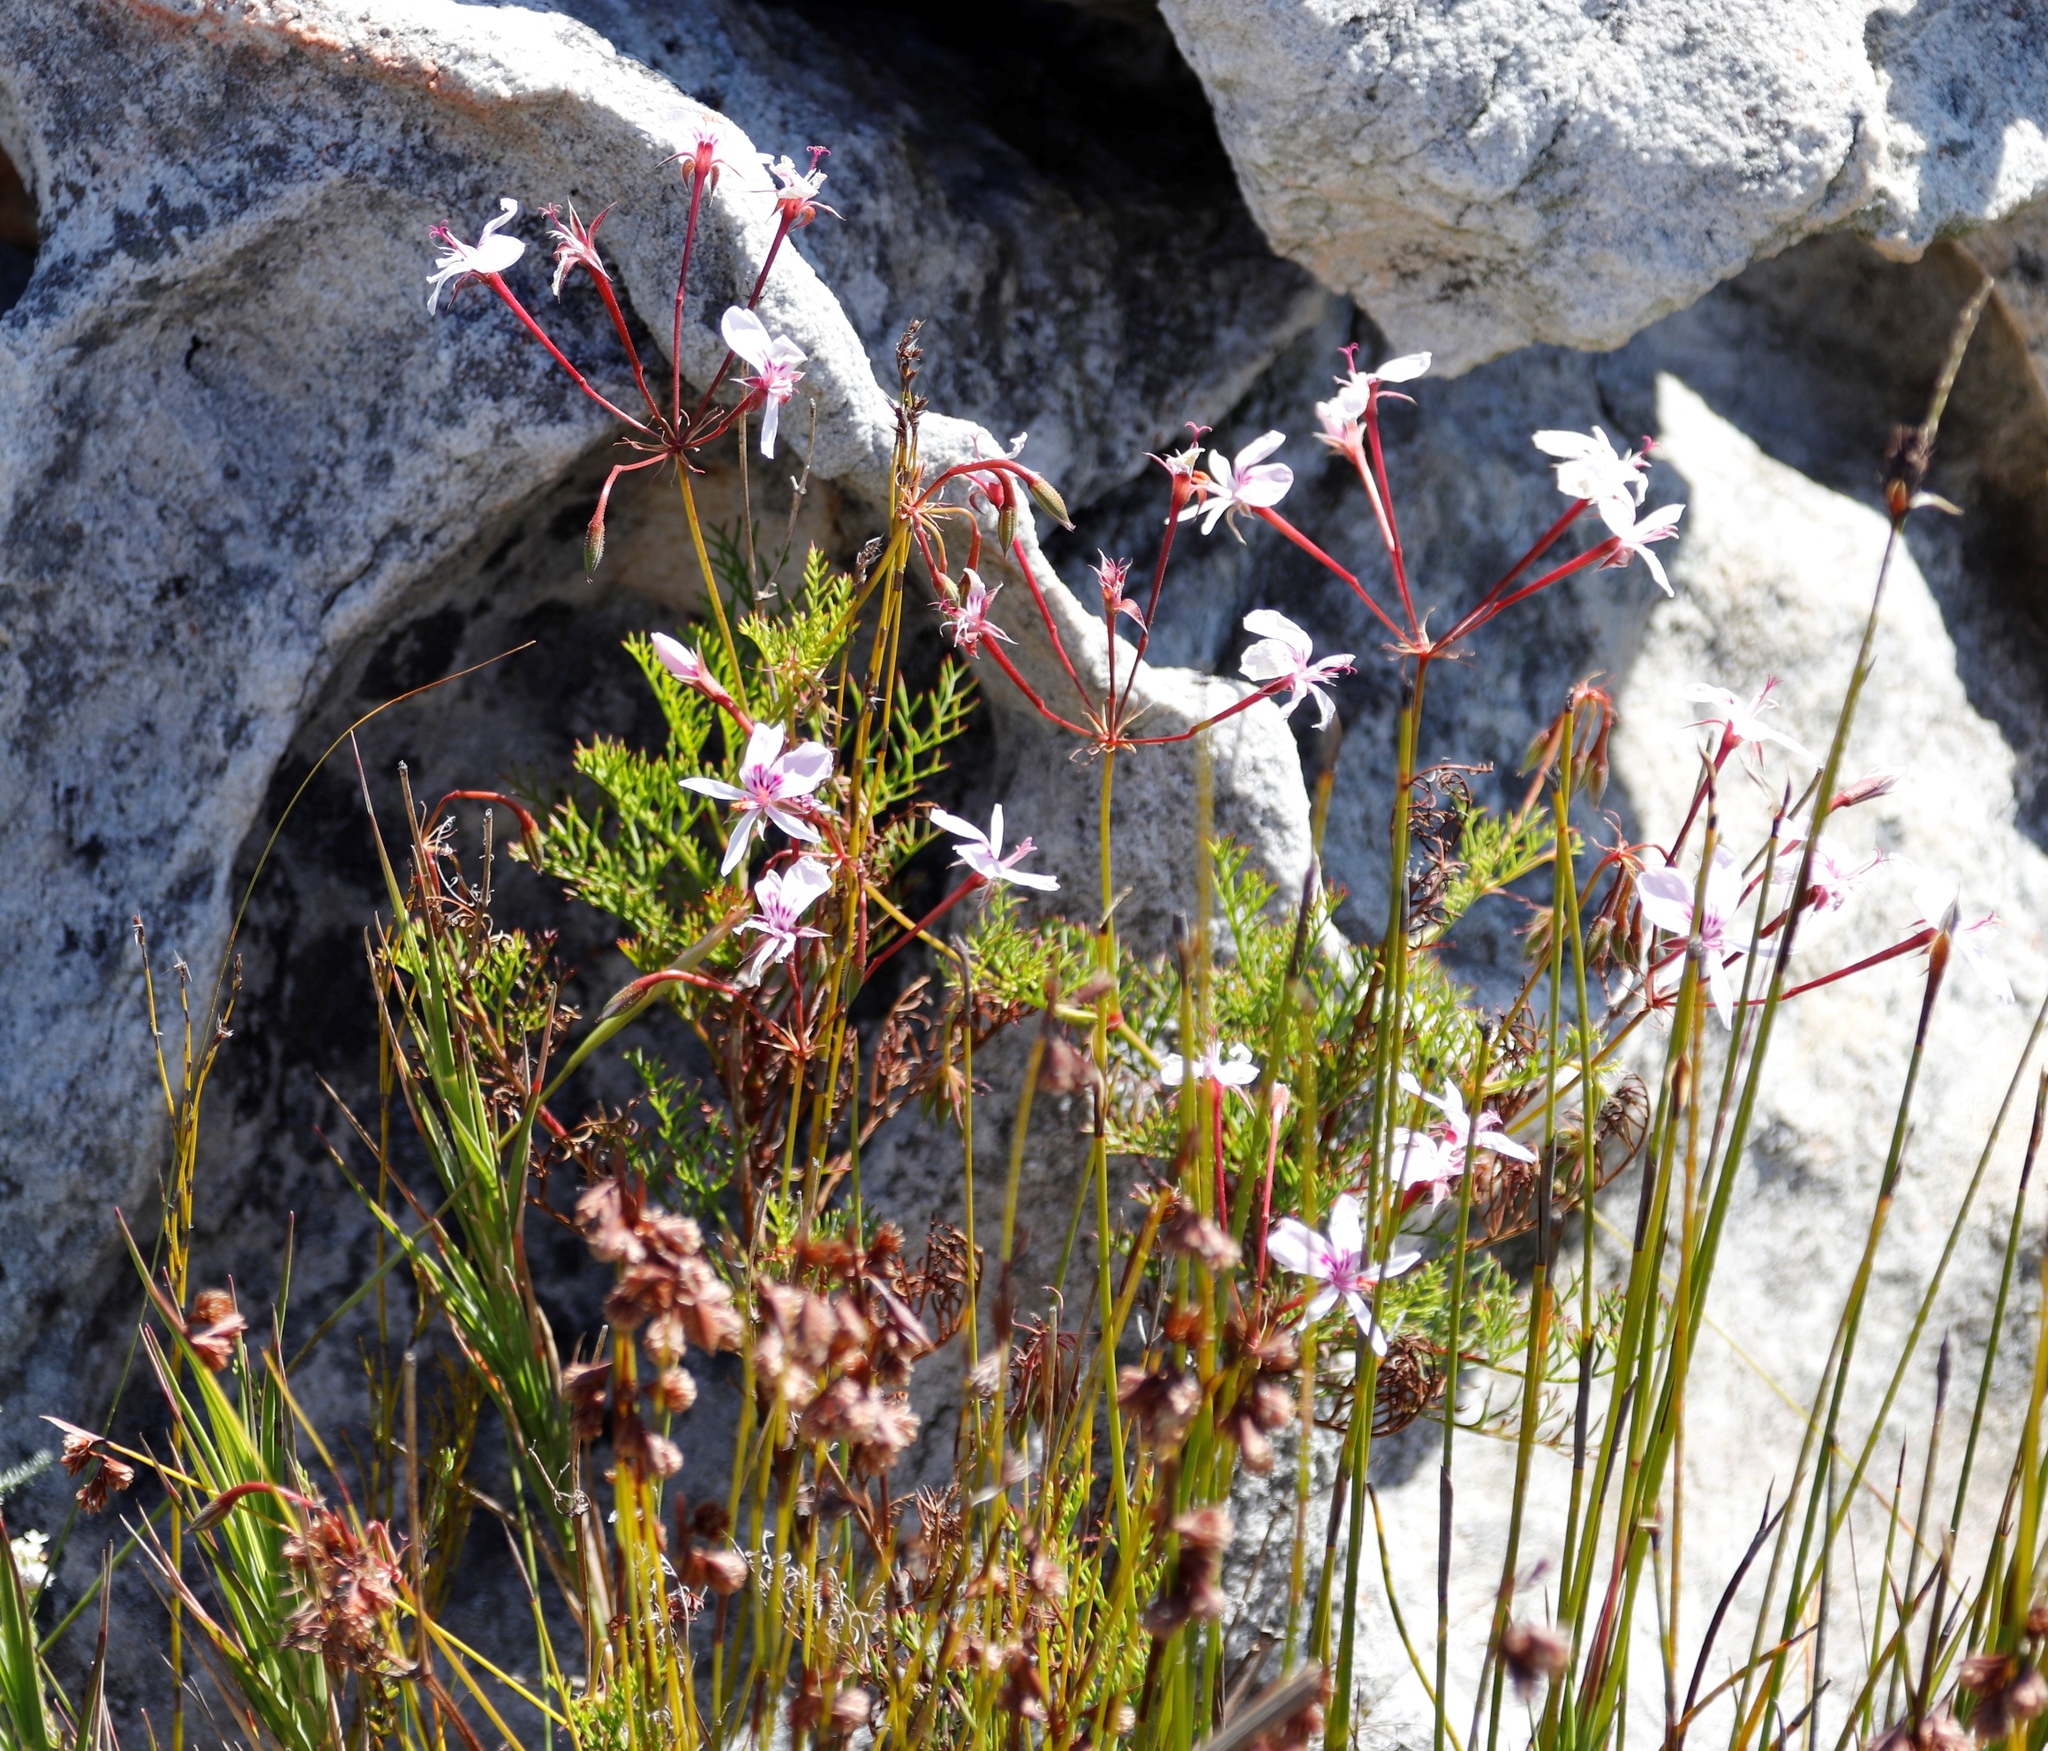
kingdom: Plantae
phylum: Tracheophyta
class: Magnoliopsida
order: Geraniales
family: Geraniaceae
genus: Pelargonium
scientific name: Pelargonium artemisiifolium
